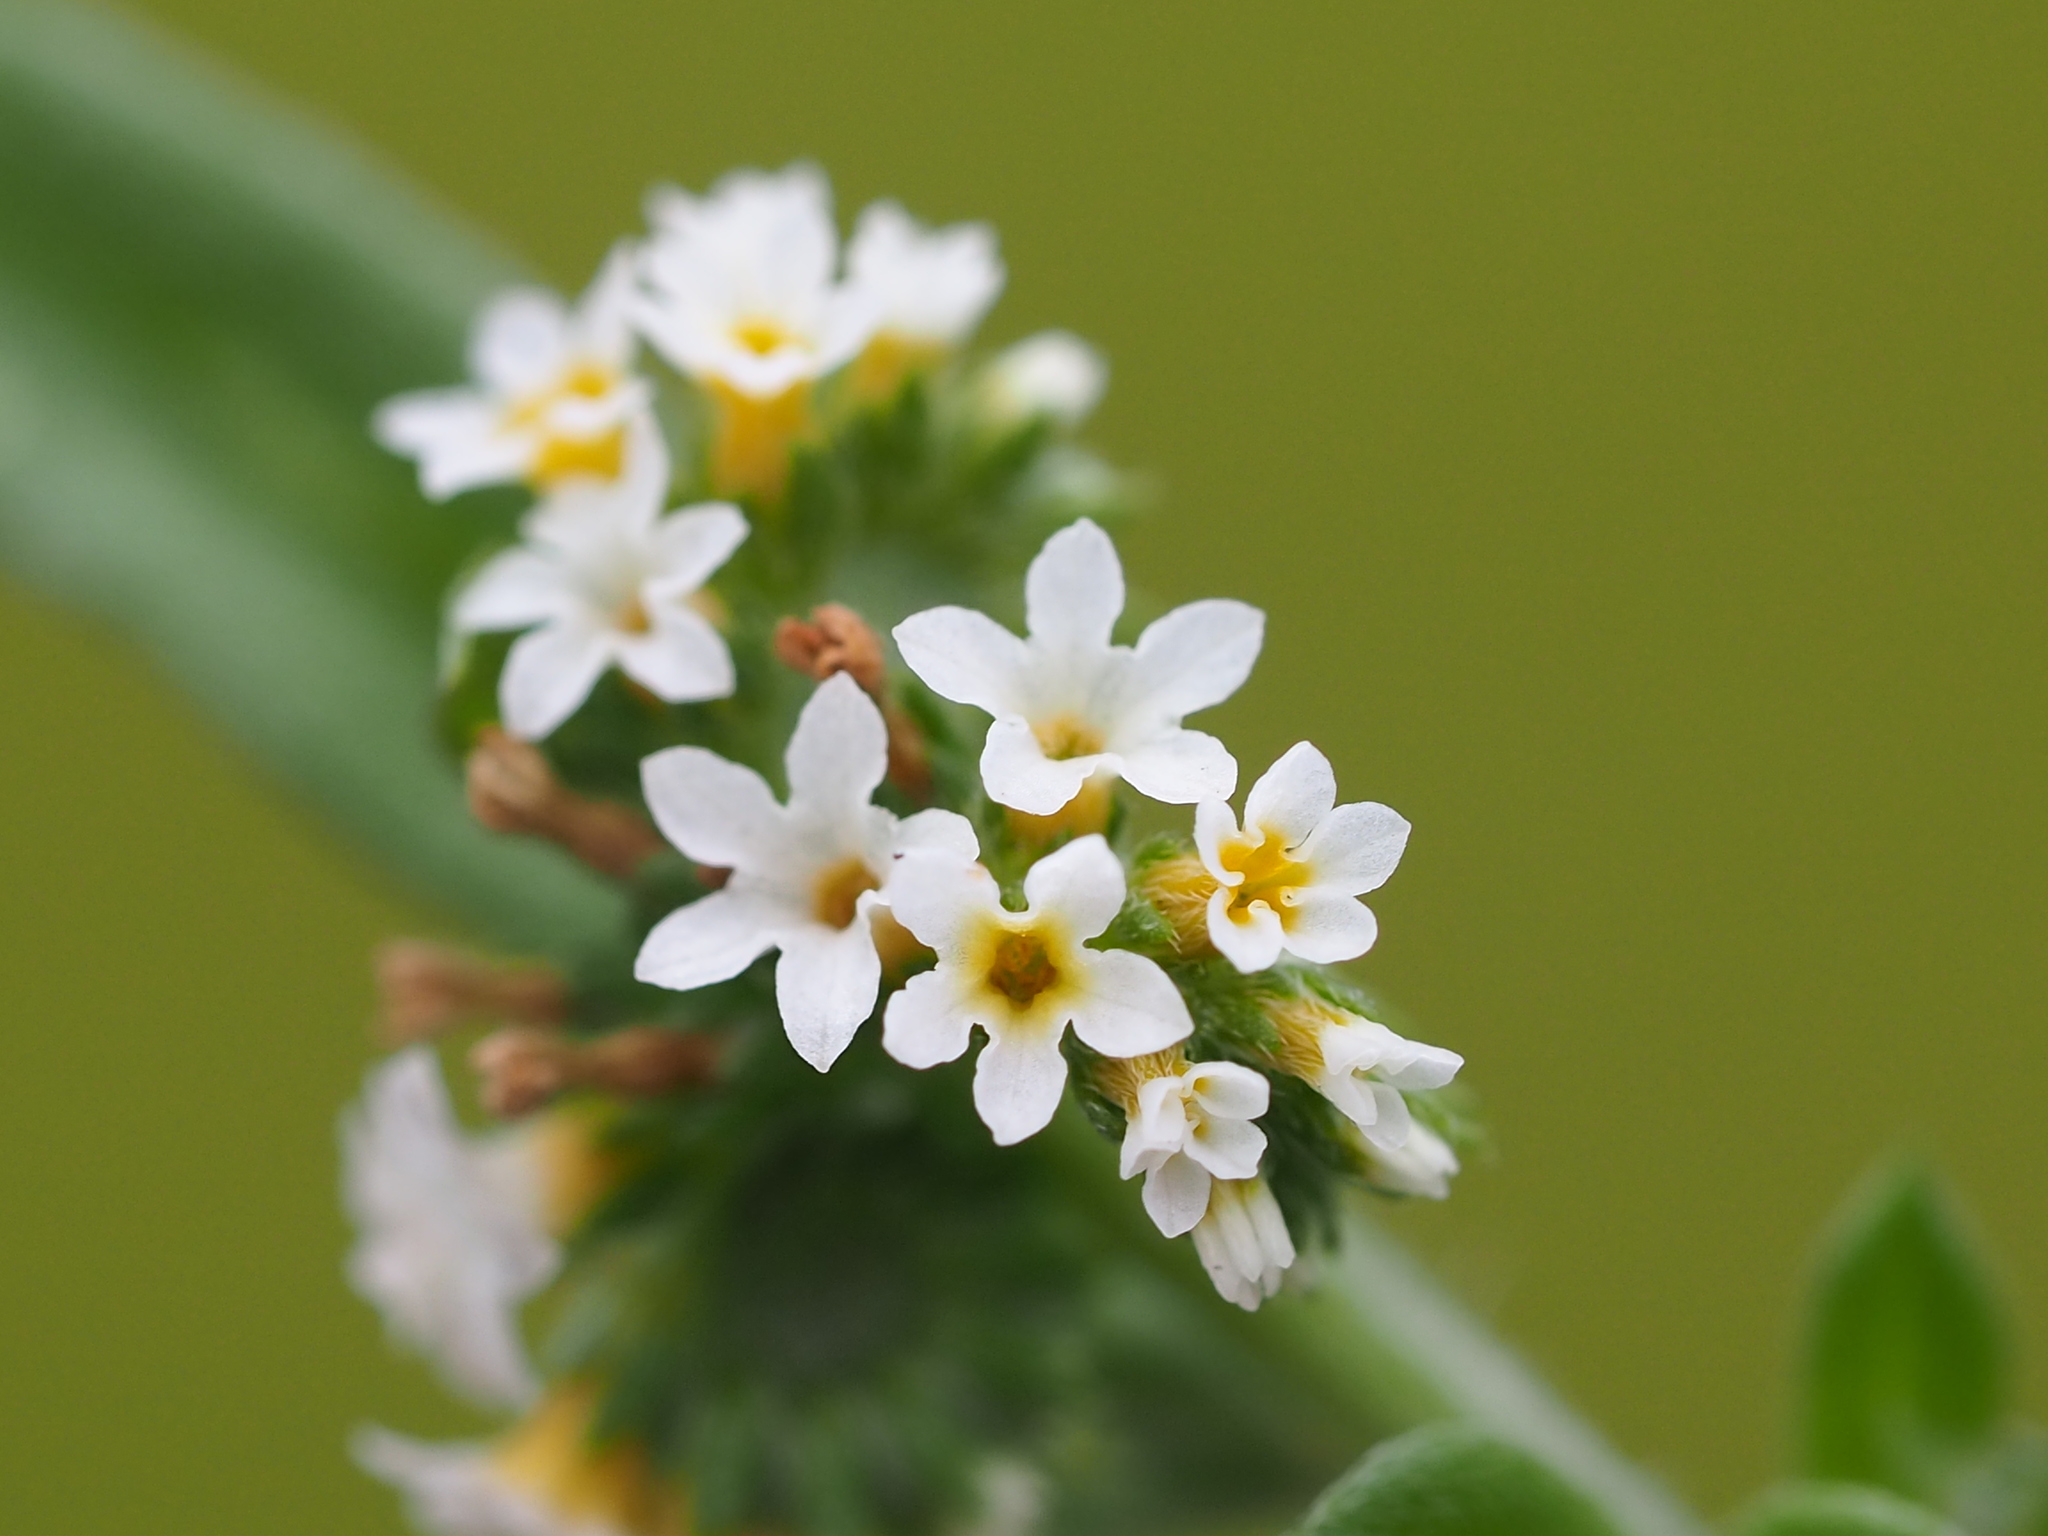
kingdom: Plantae
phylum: Tracheophyta
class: Magnoliopsida
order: Boraginales
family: Heliotropiaceae
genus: Euploca
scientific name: Euploca procumbens
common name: Fourspike heliotrope
